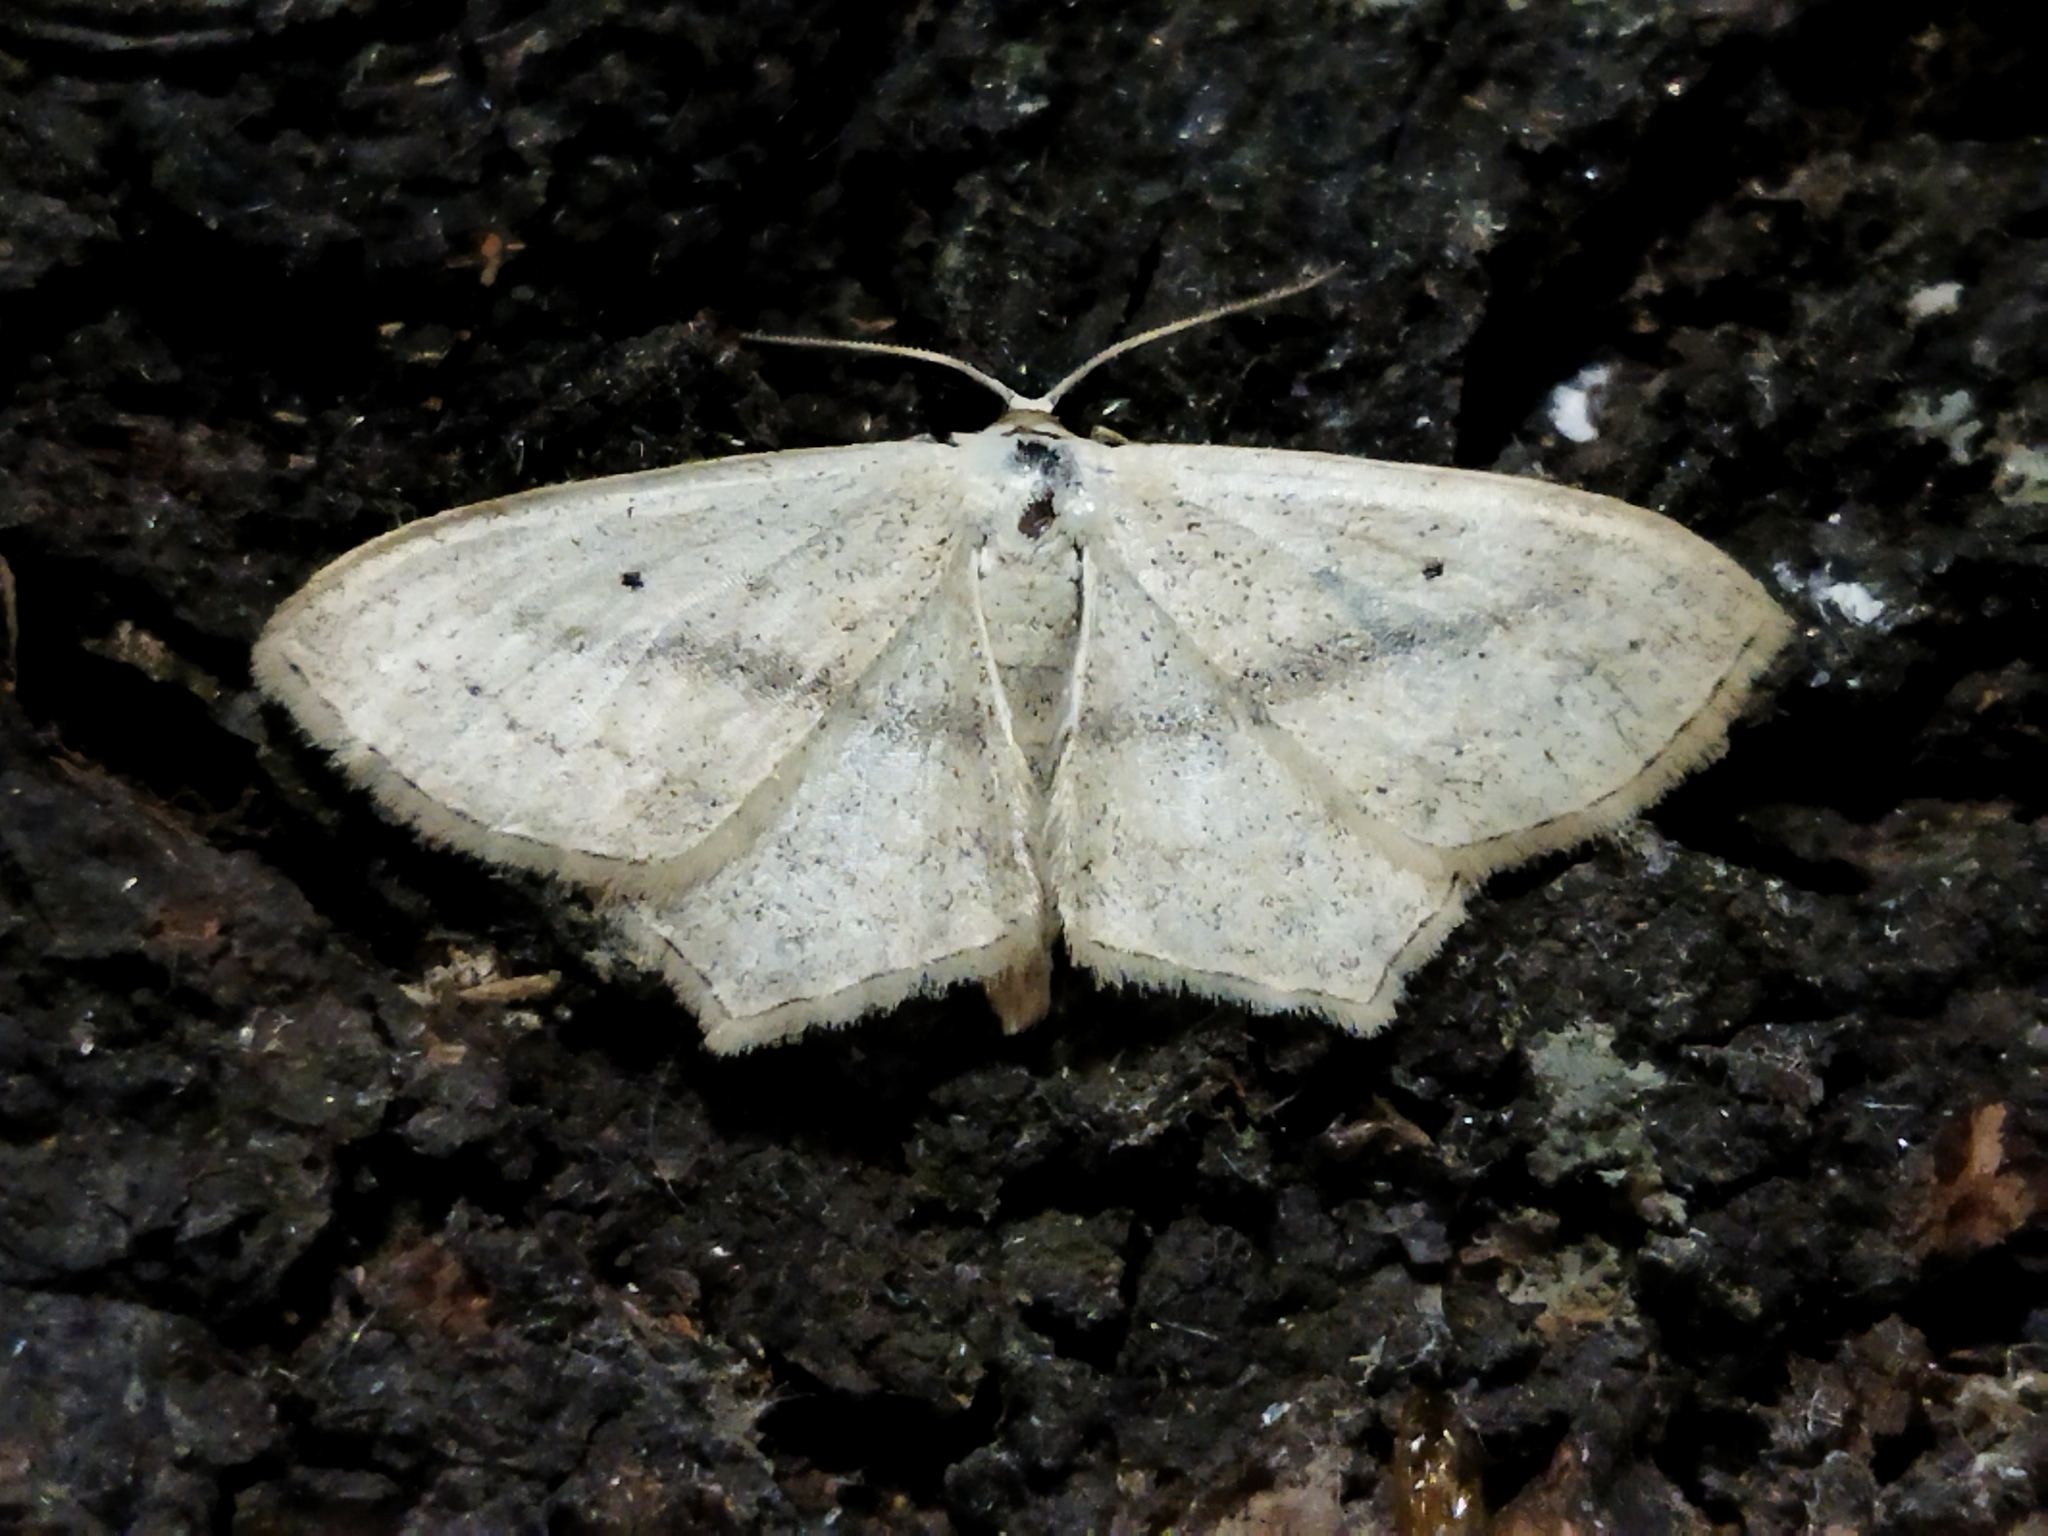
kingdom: Animalia
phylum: Arthropoda
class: Insecta
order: Lepidoptera
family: Geometridae
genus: Scopula
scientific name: Scopula flaccidaria
